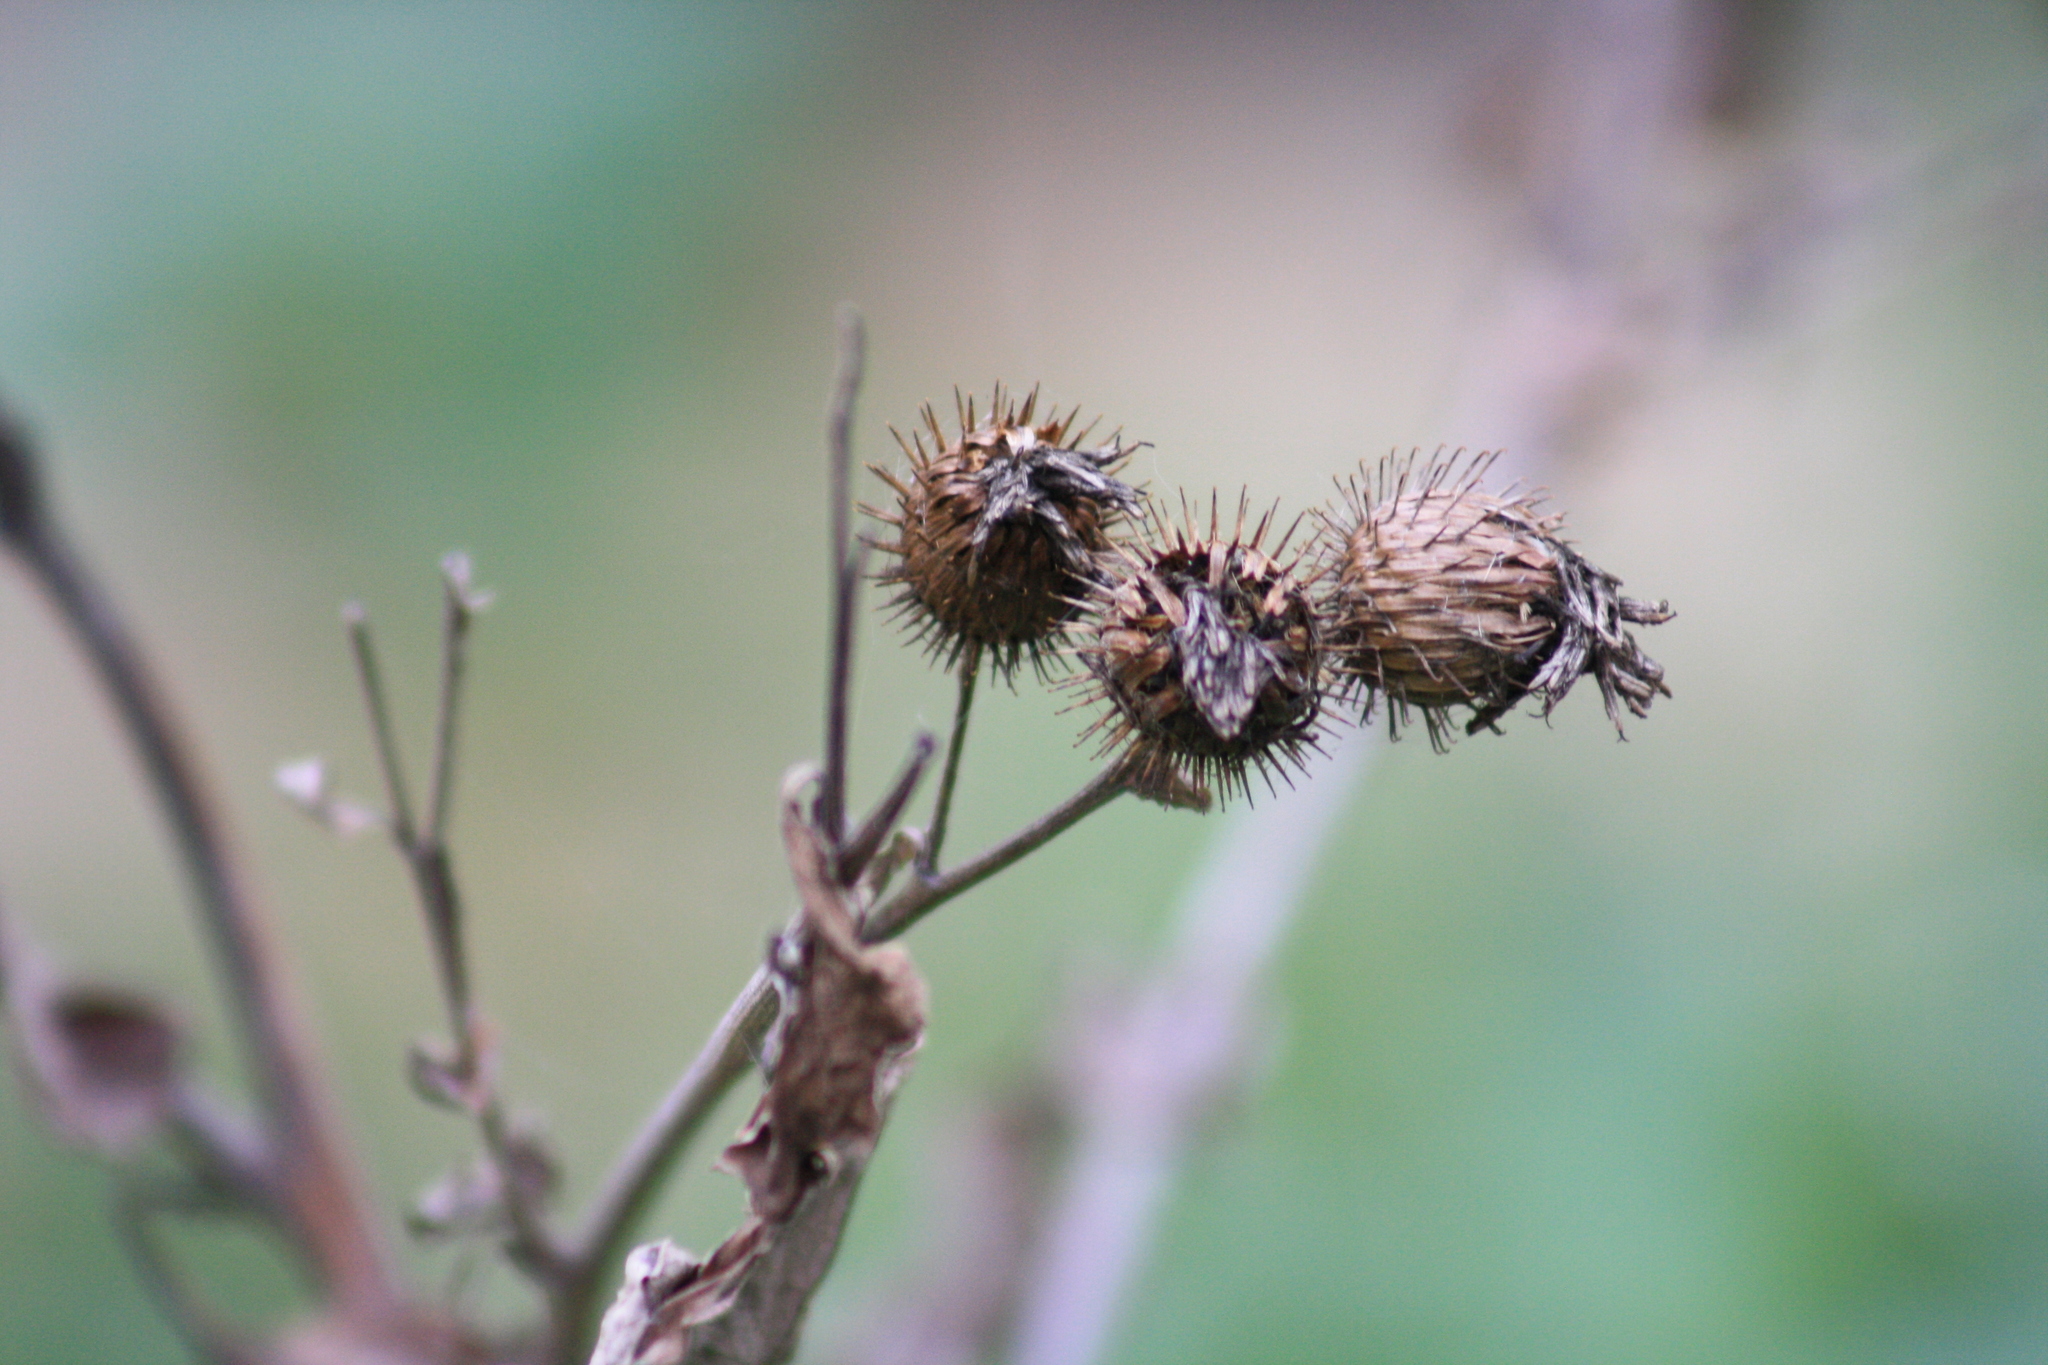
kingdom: Plantae
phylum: Tracheophyta
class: Magnoliopsida
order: Asterales
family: Asteraceae
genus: Arctium
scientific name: Arctium tomentosum
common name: Woolly burdock
